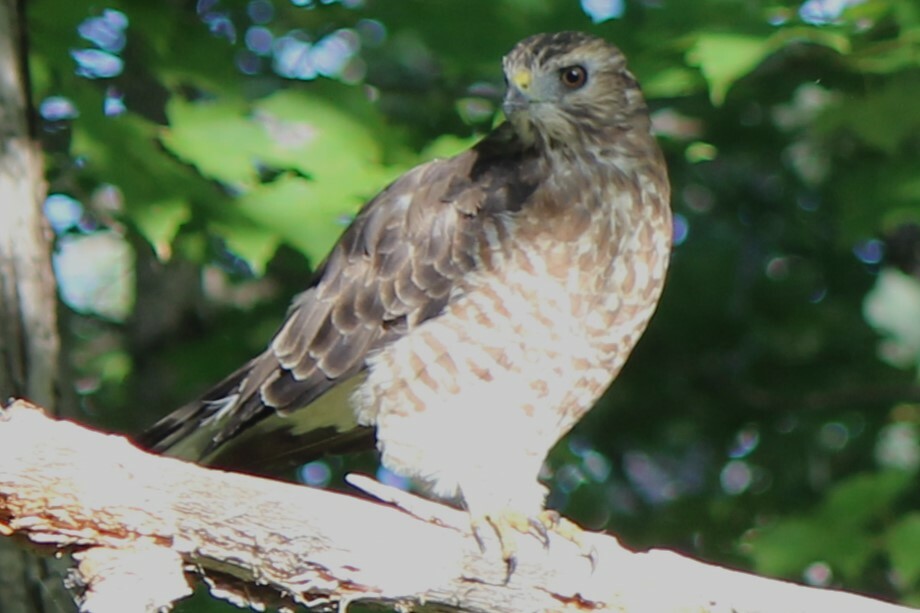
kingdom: Animalia
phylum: Chordata
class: Aves
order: Accipitriformes
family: Accipitridae
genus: Buteo
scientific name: Buteo platypterus
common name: Broad-winged hawk
